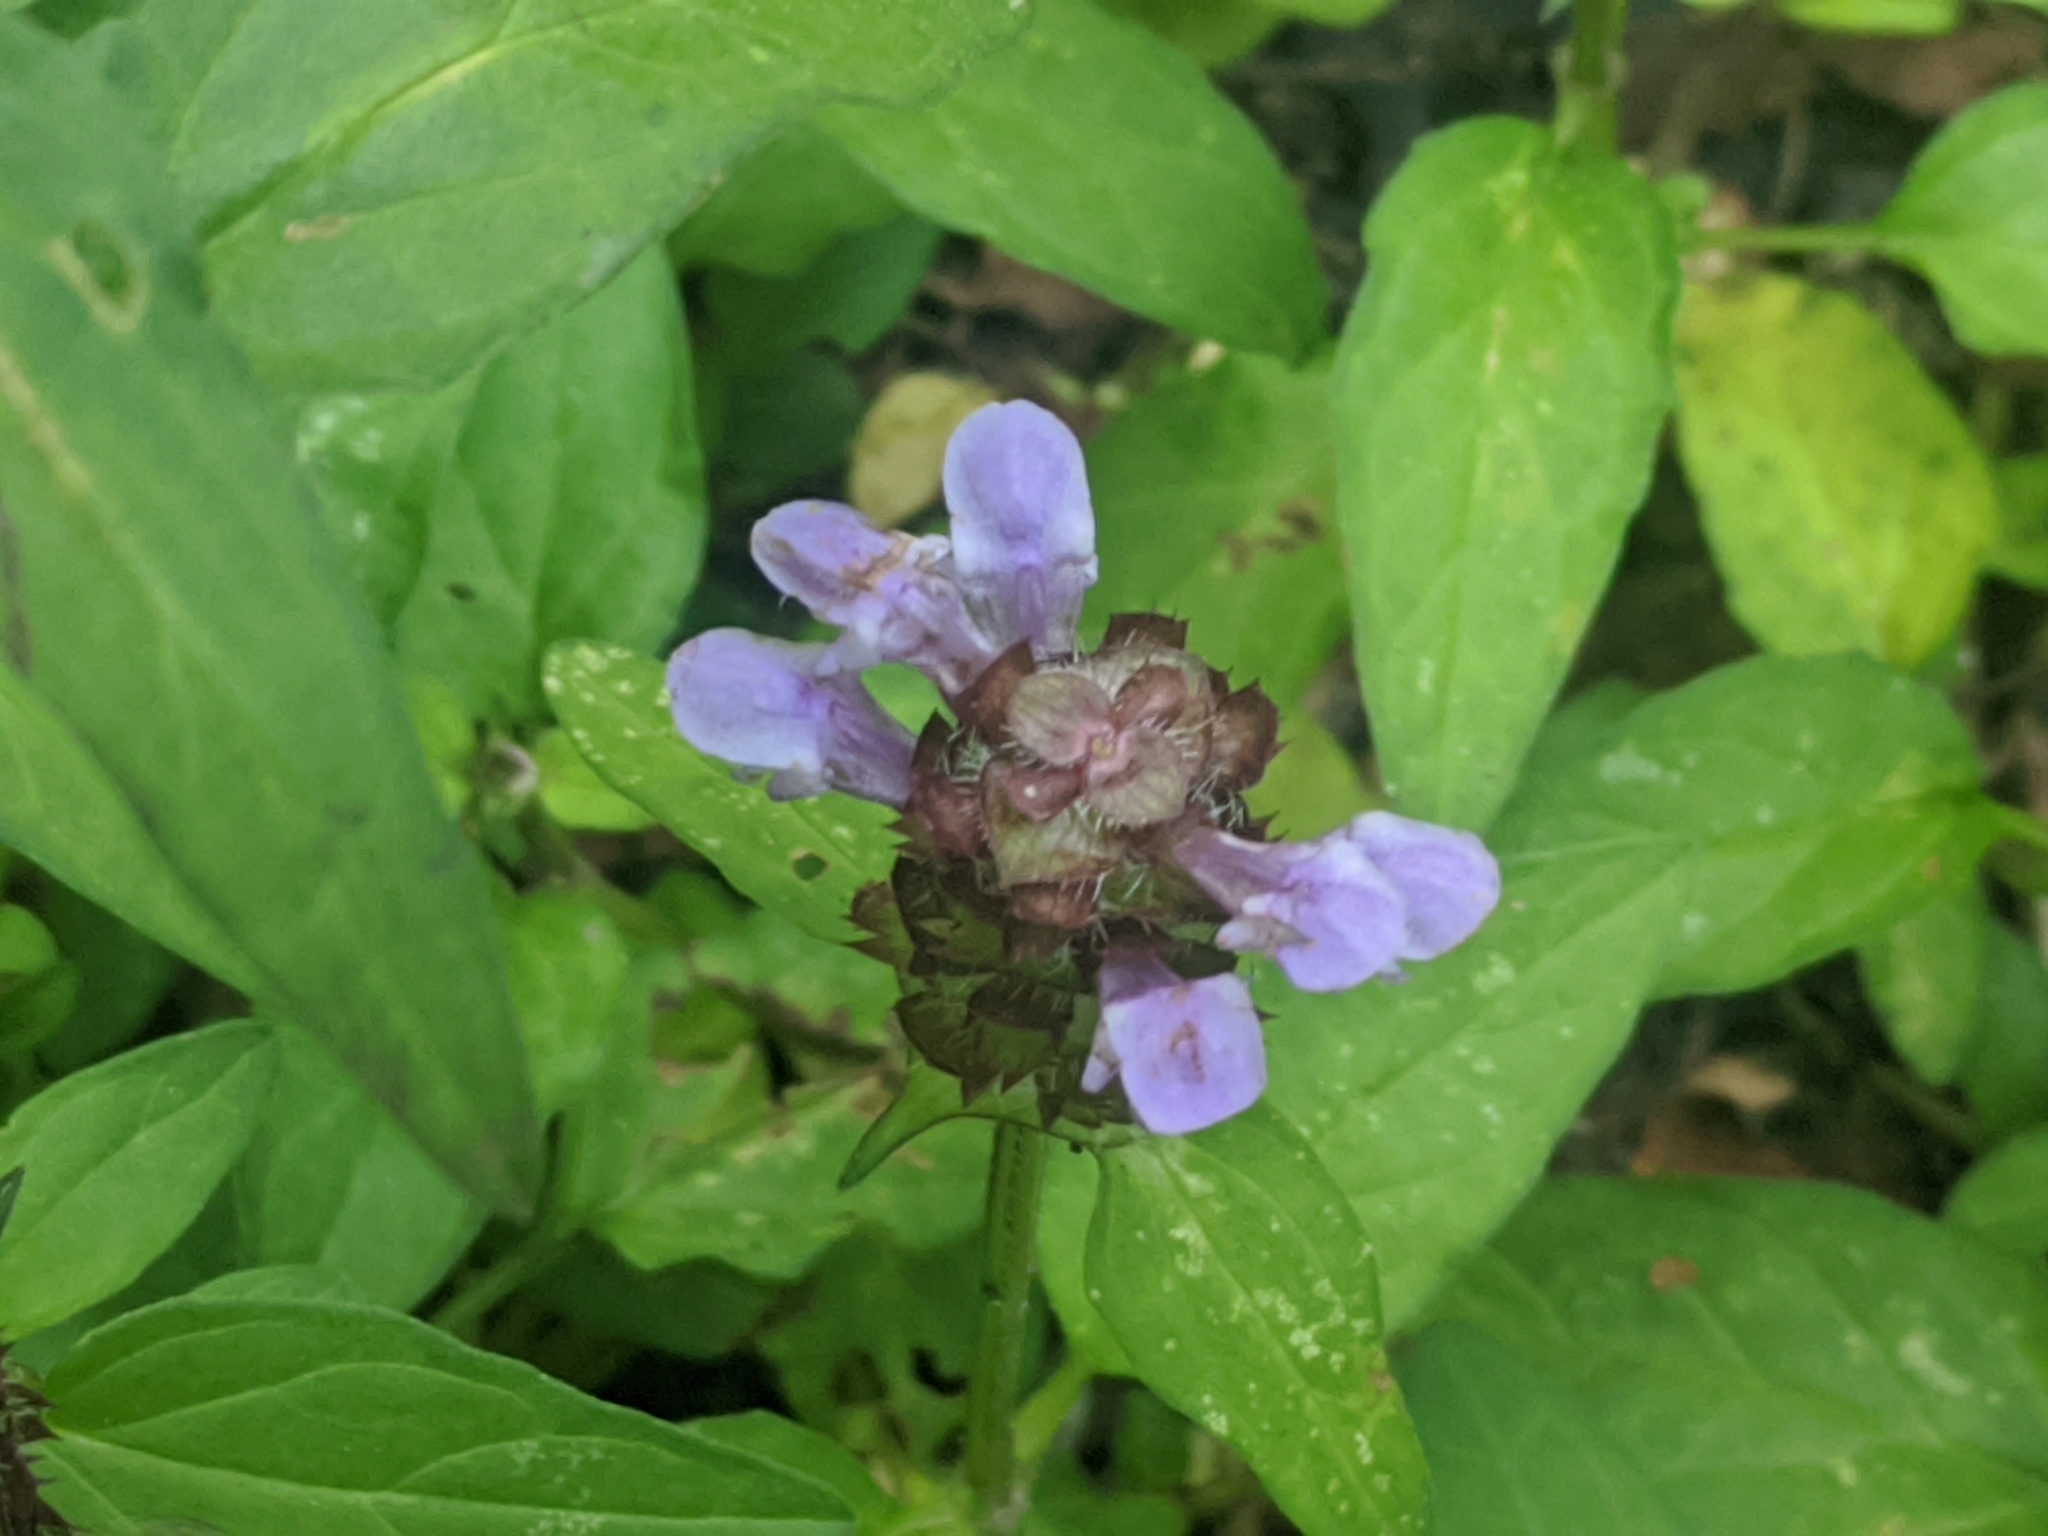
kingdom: Plantae
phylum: Tracheophyta
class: Magnoliopsida
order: Lamiales
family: Lamiaceae
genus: Prunella
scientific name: Prunella vulgaris
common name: Heal-all
